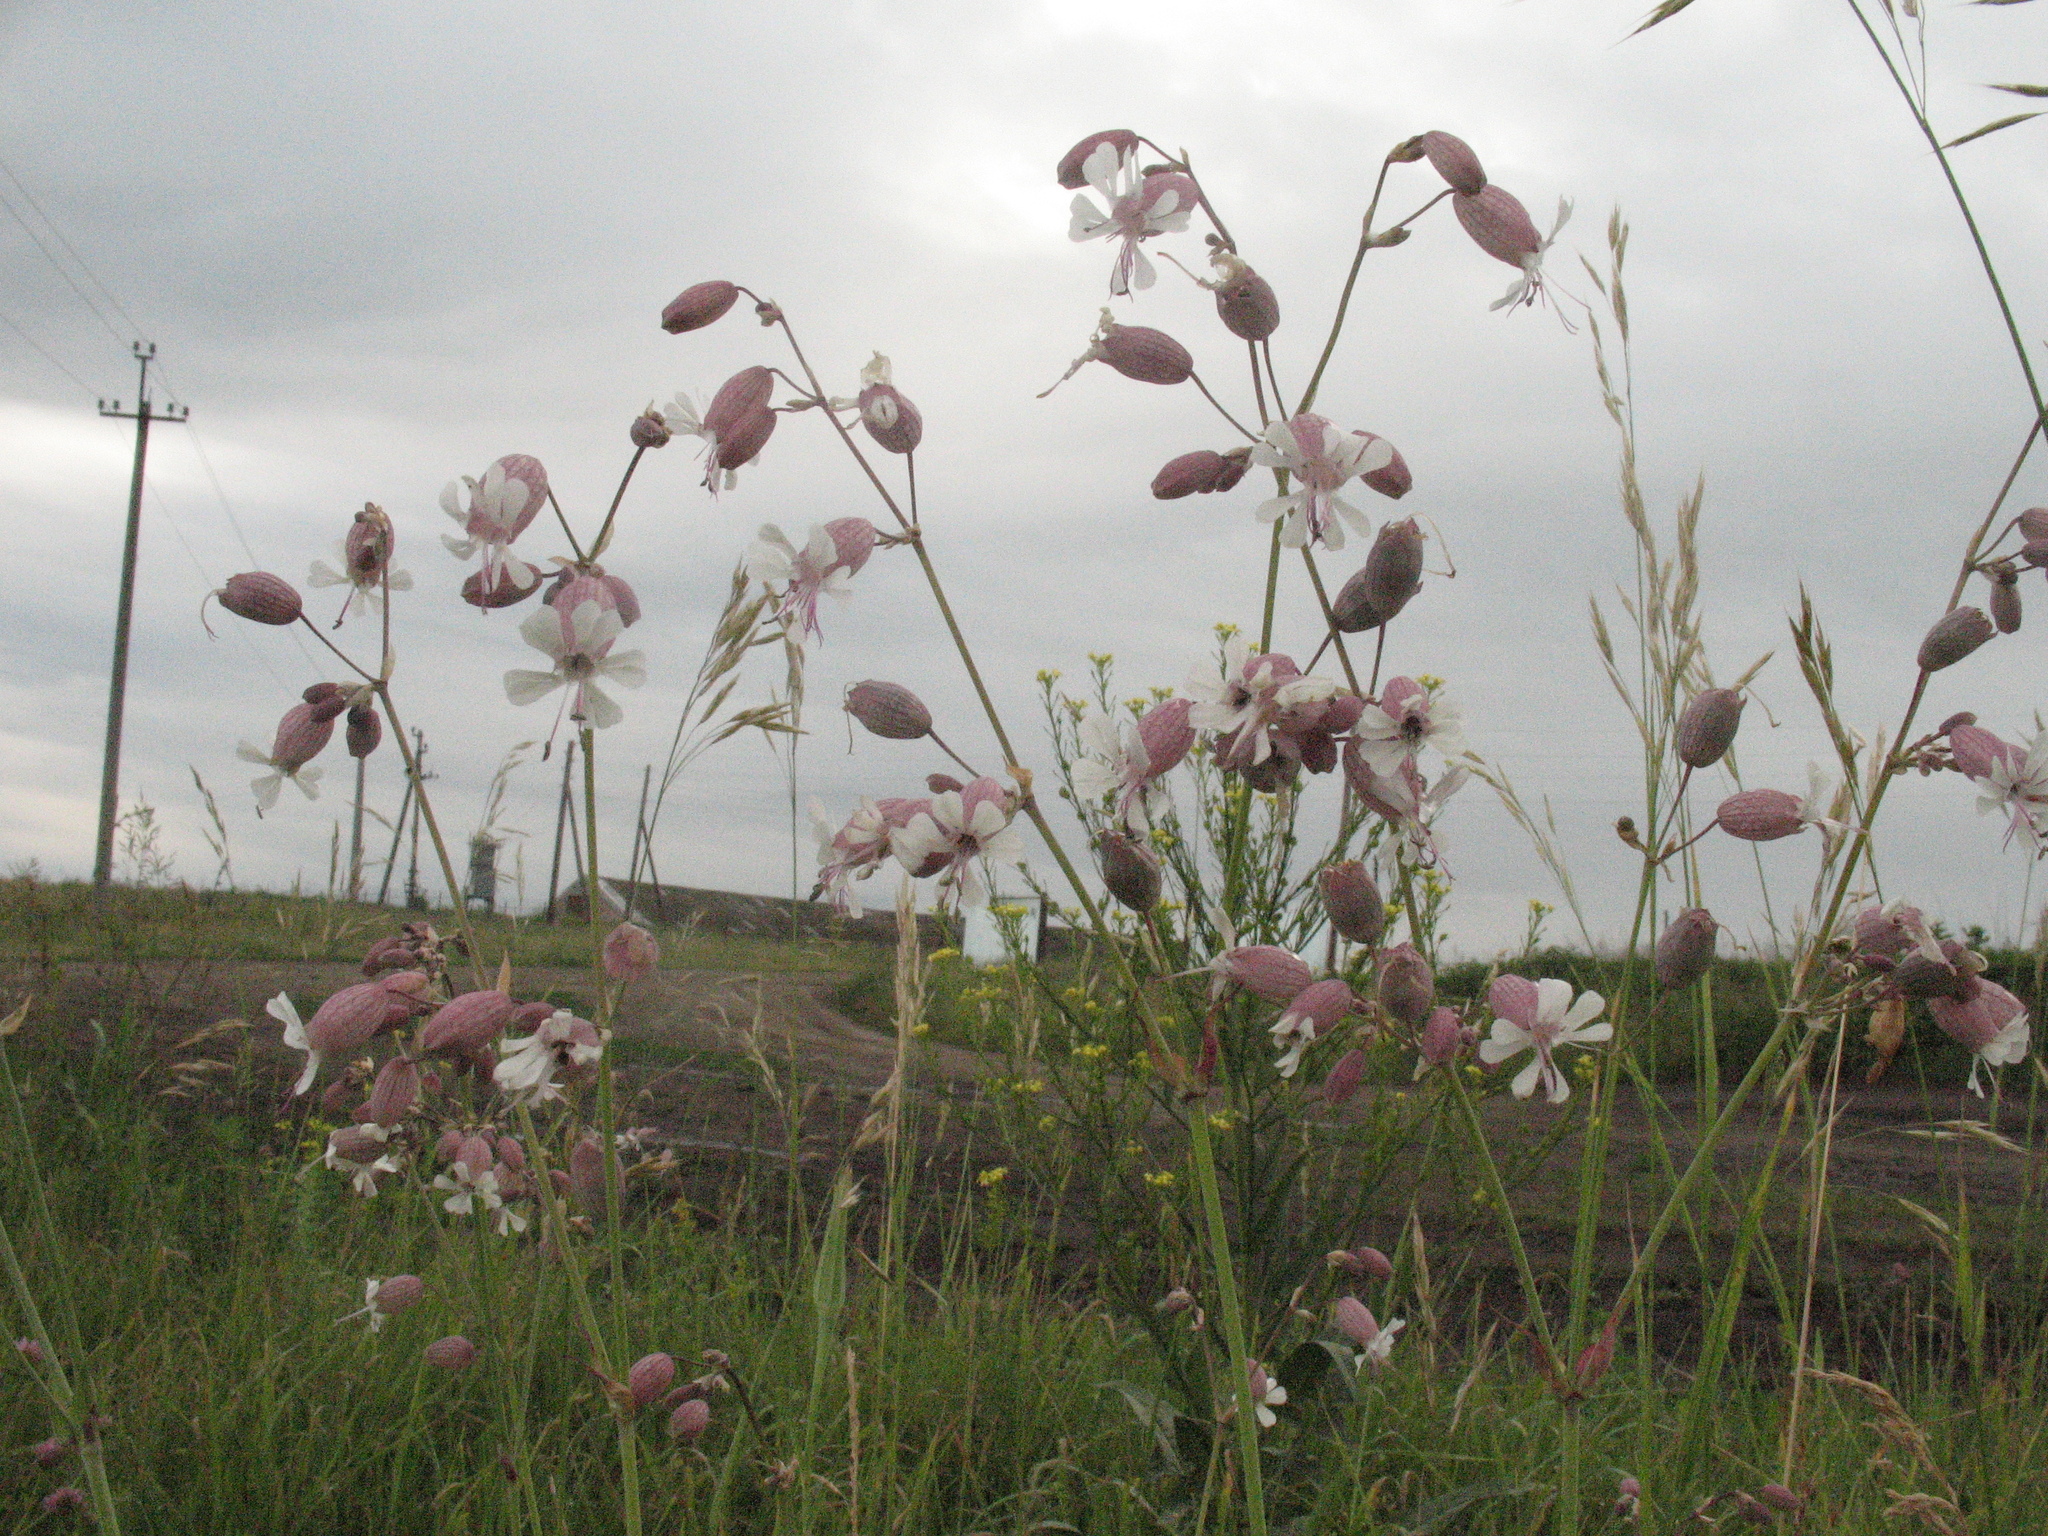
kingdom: Plantae
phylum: Tracheophyta
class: Magnoliopsida
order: Caryophyllales
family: Caryophyllaceae
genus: Silene
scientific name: Silene vulgaris
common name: Bladder campion
